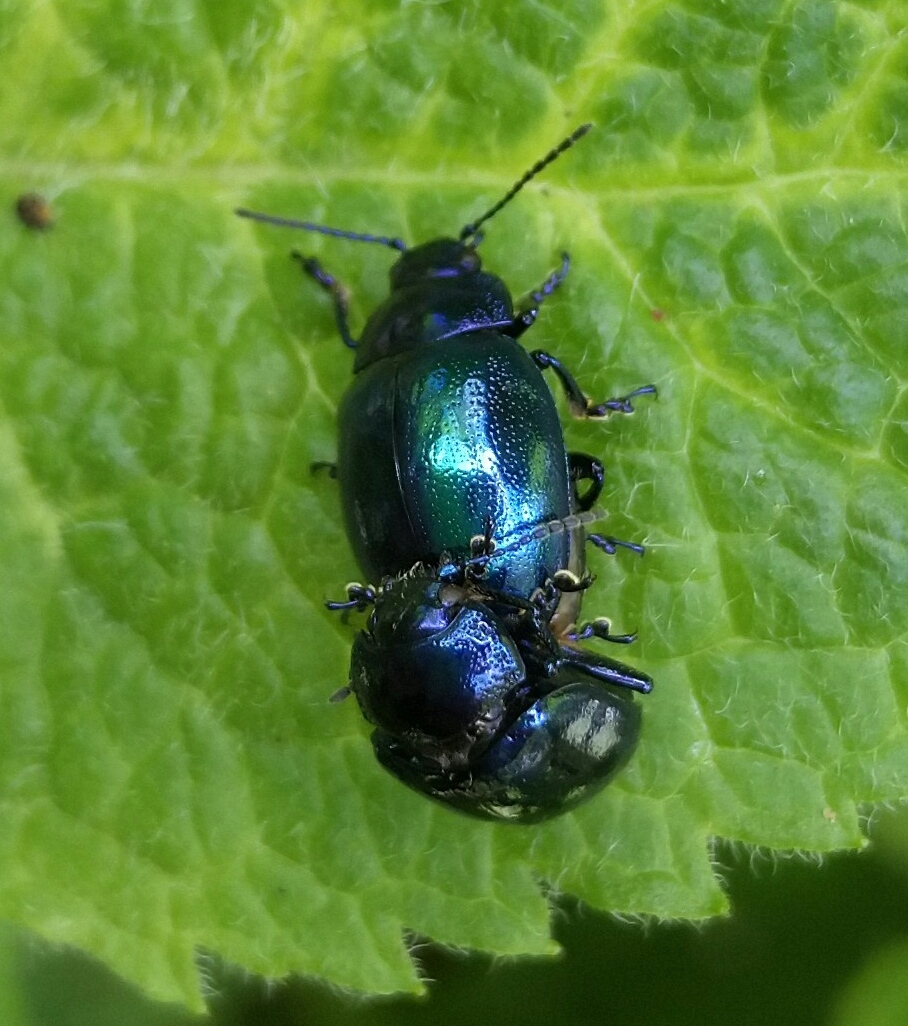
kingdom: Animalia
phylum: Arthropoda
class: Insecta
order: Coleoptera
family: Chrysomelidae
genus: Chrysolina
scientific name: Chrysolina coerulans
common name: Blue mint beetle
